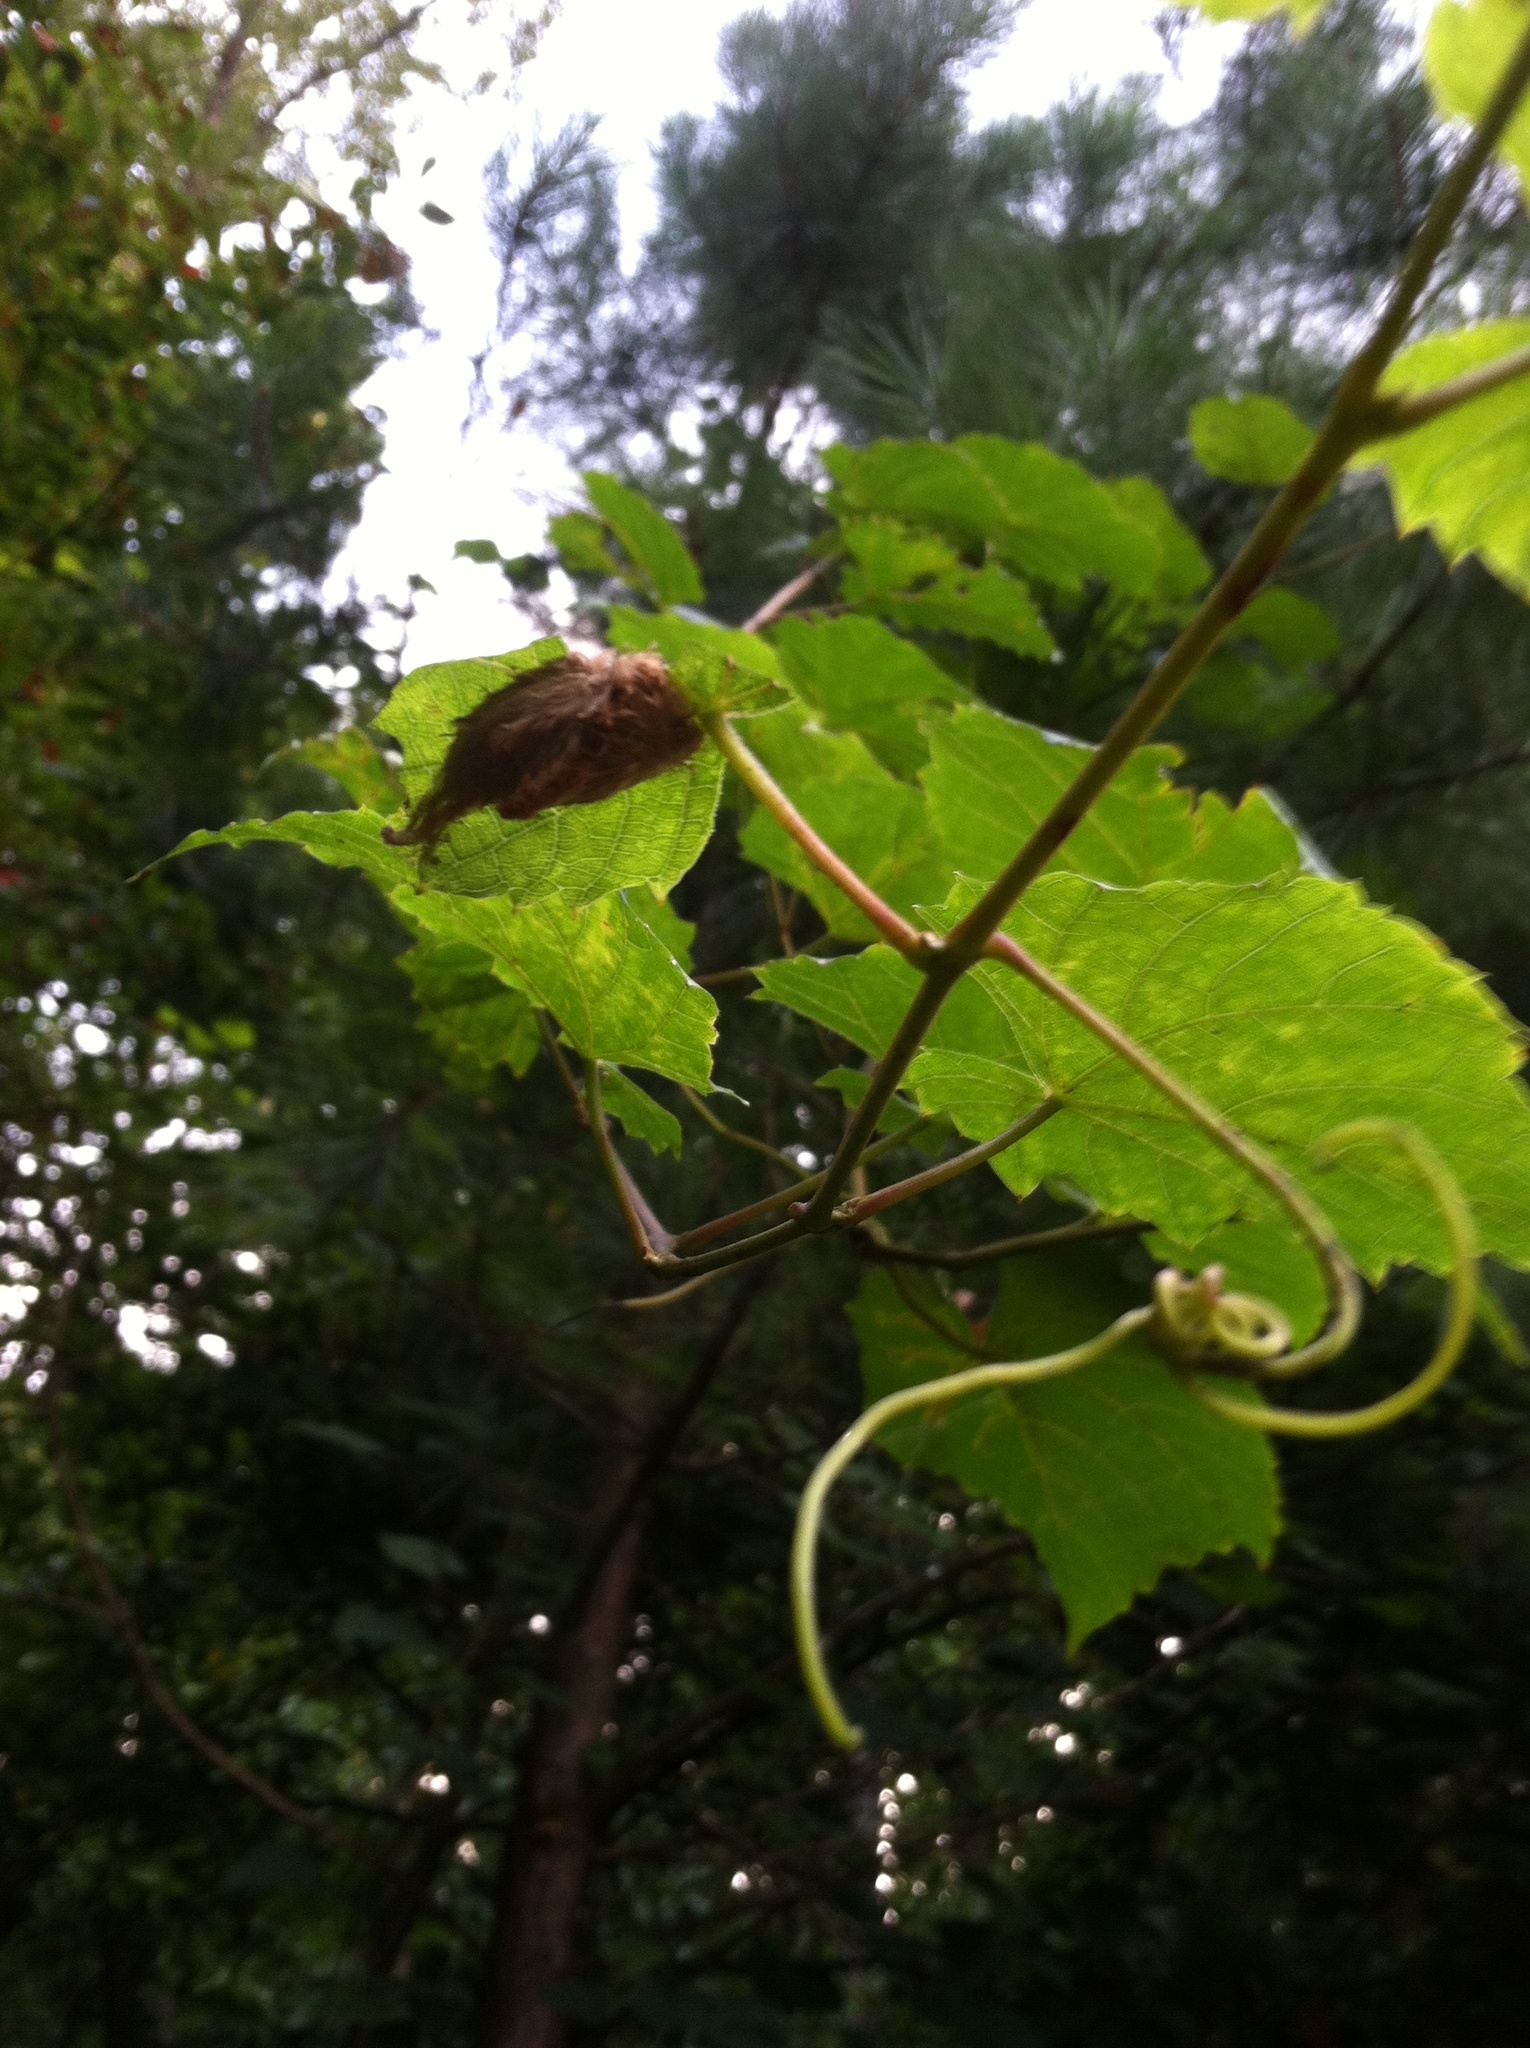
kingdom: Animalia
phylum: Arthropoda
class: Insecta
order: Lepidoptera
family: Megalopygidae
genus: Megalopyge
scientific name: Megalopyge opercularis
